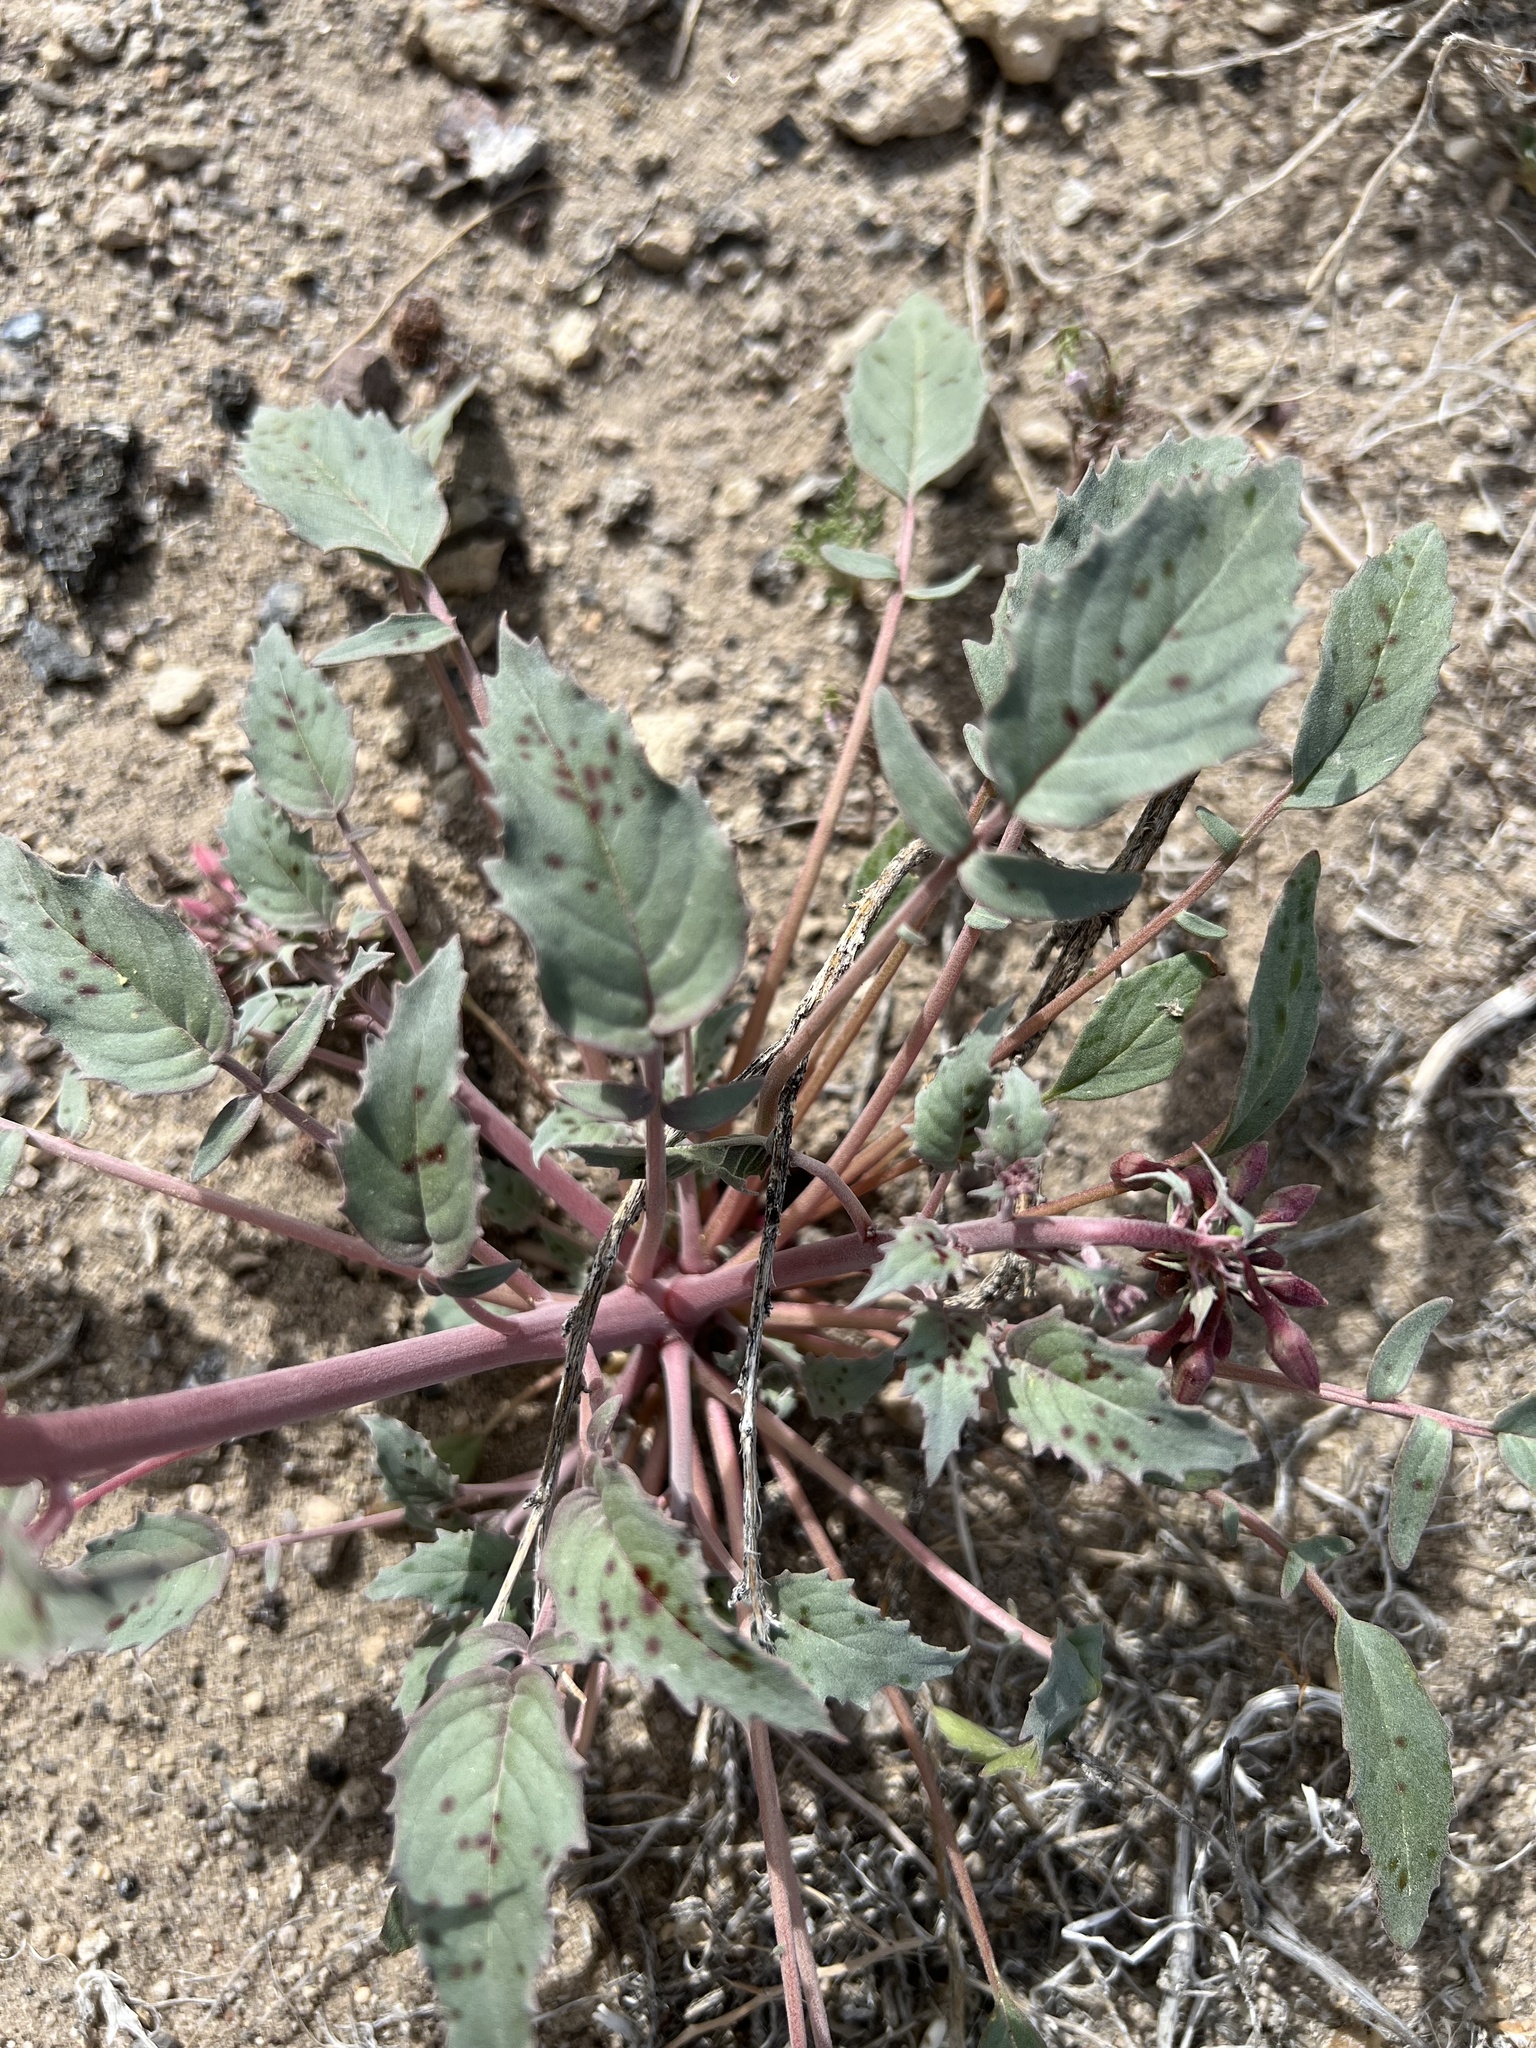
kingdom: Plantae
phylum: Tracheophyta
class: Magnoliopsida
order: Myrtales
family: Onagraceae
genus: Chylismia
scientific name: Chylismia claviformis
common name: Browneyes
